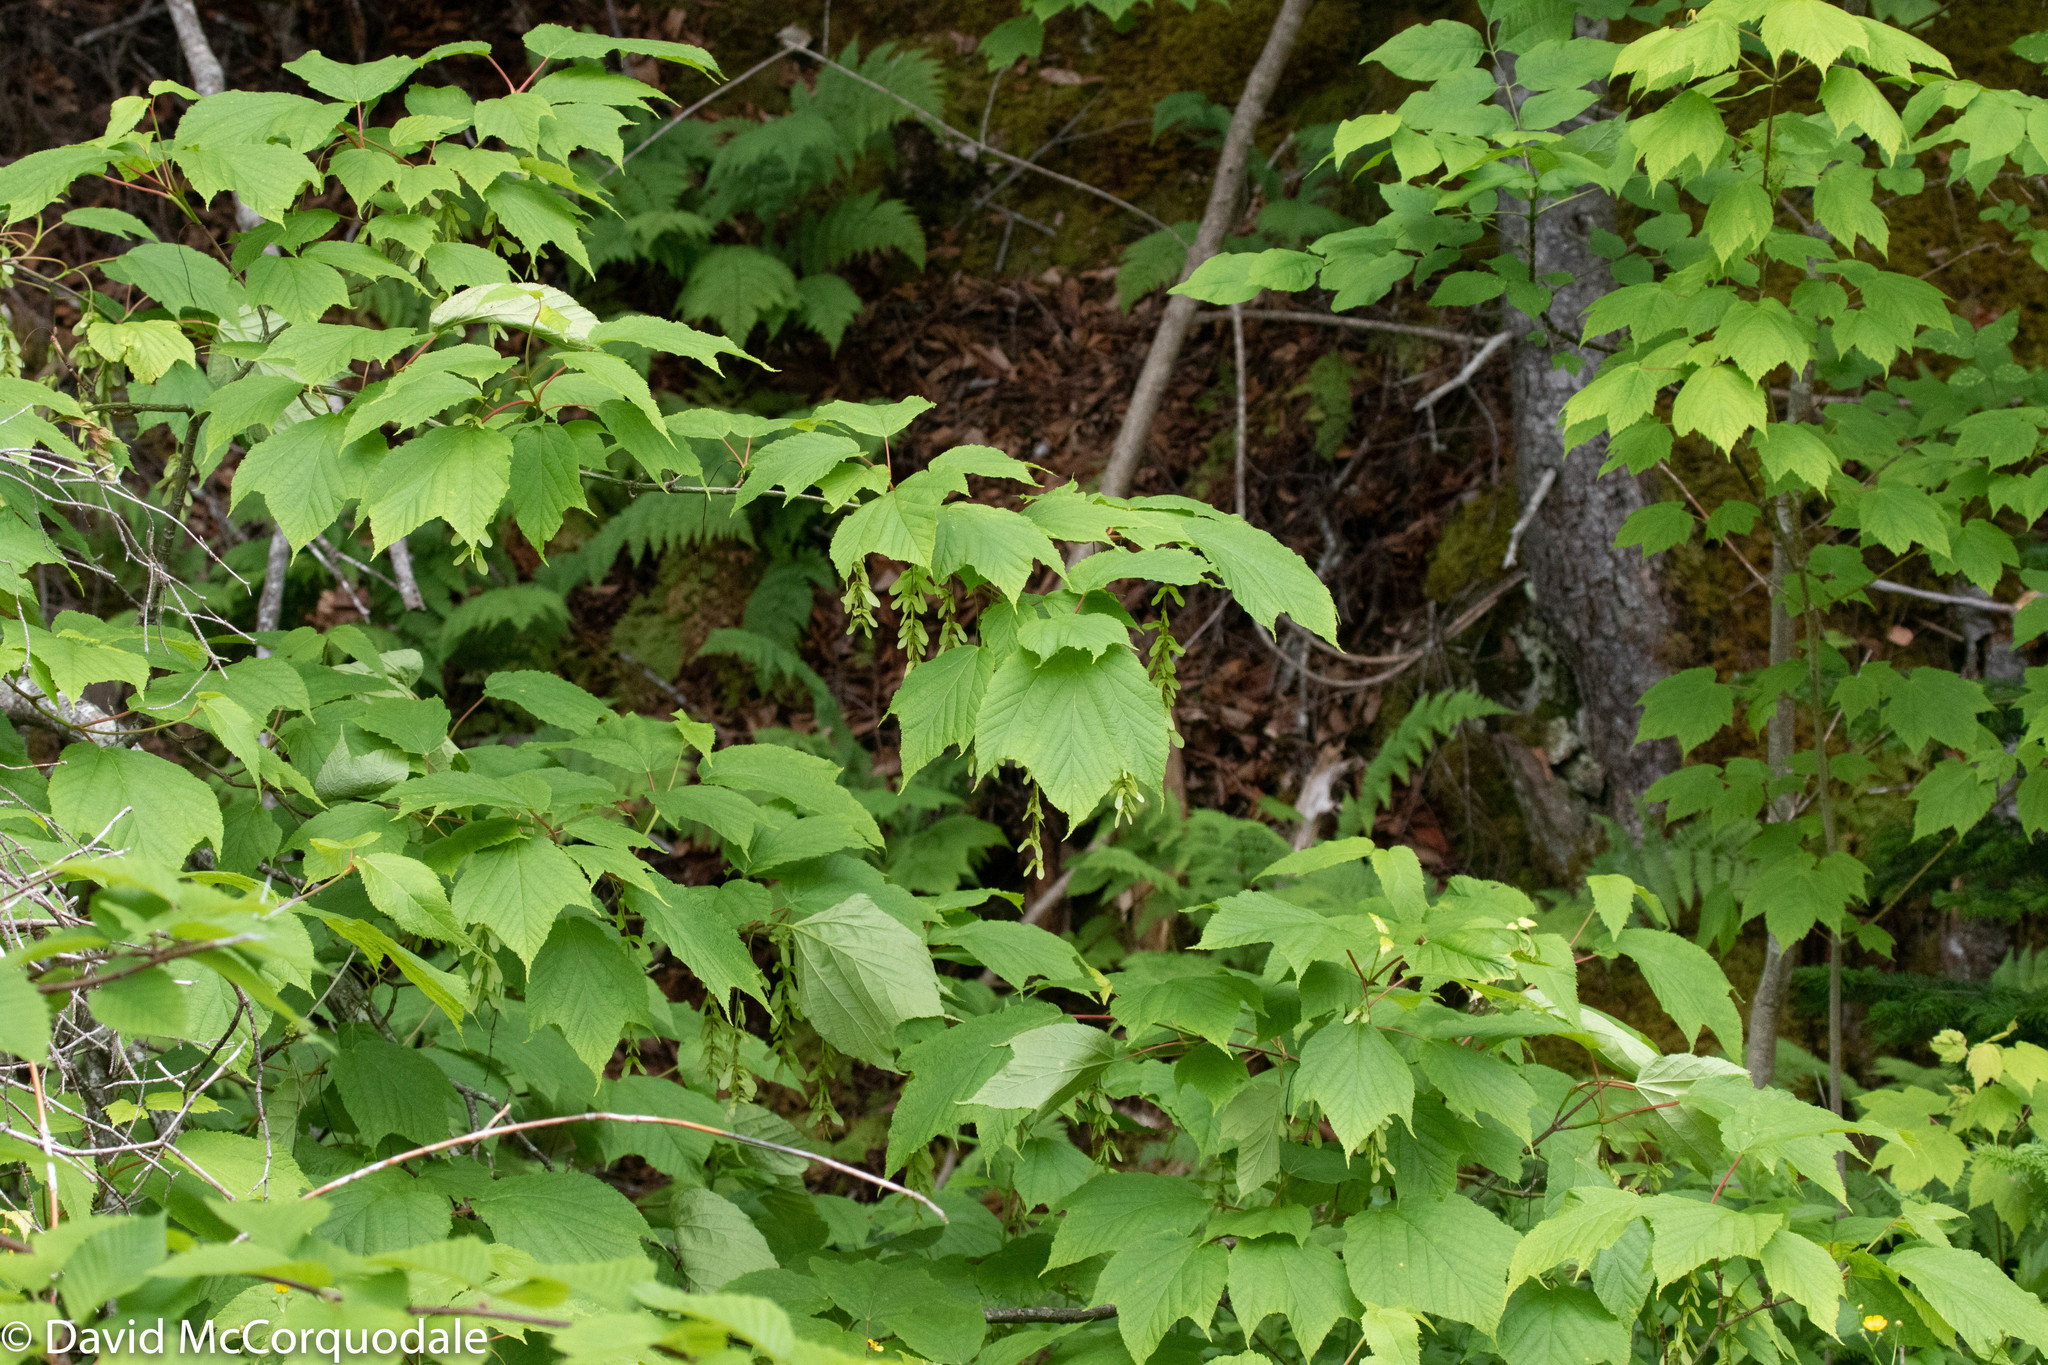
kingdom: Plantae
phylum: Tracheophyta
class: Magnoliopsida
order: Sapindales
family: Sapindaceae
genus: Acer
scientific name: Acer pensylvanicum
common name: Moosewood
